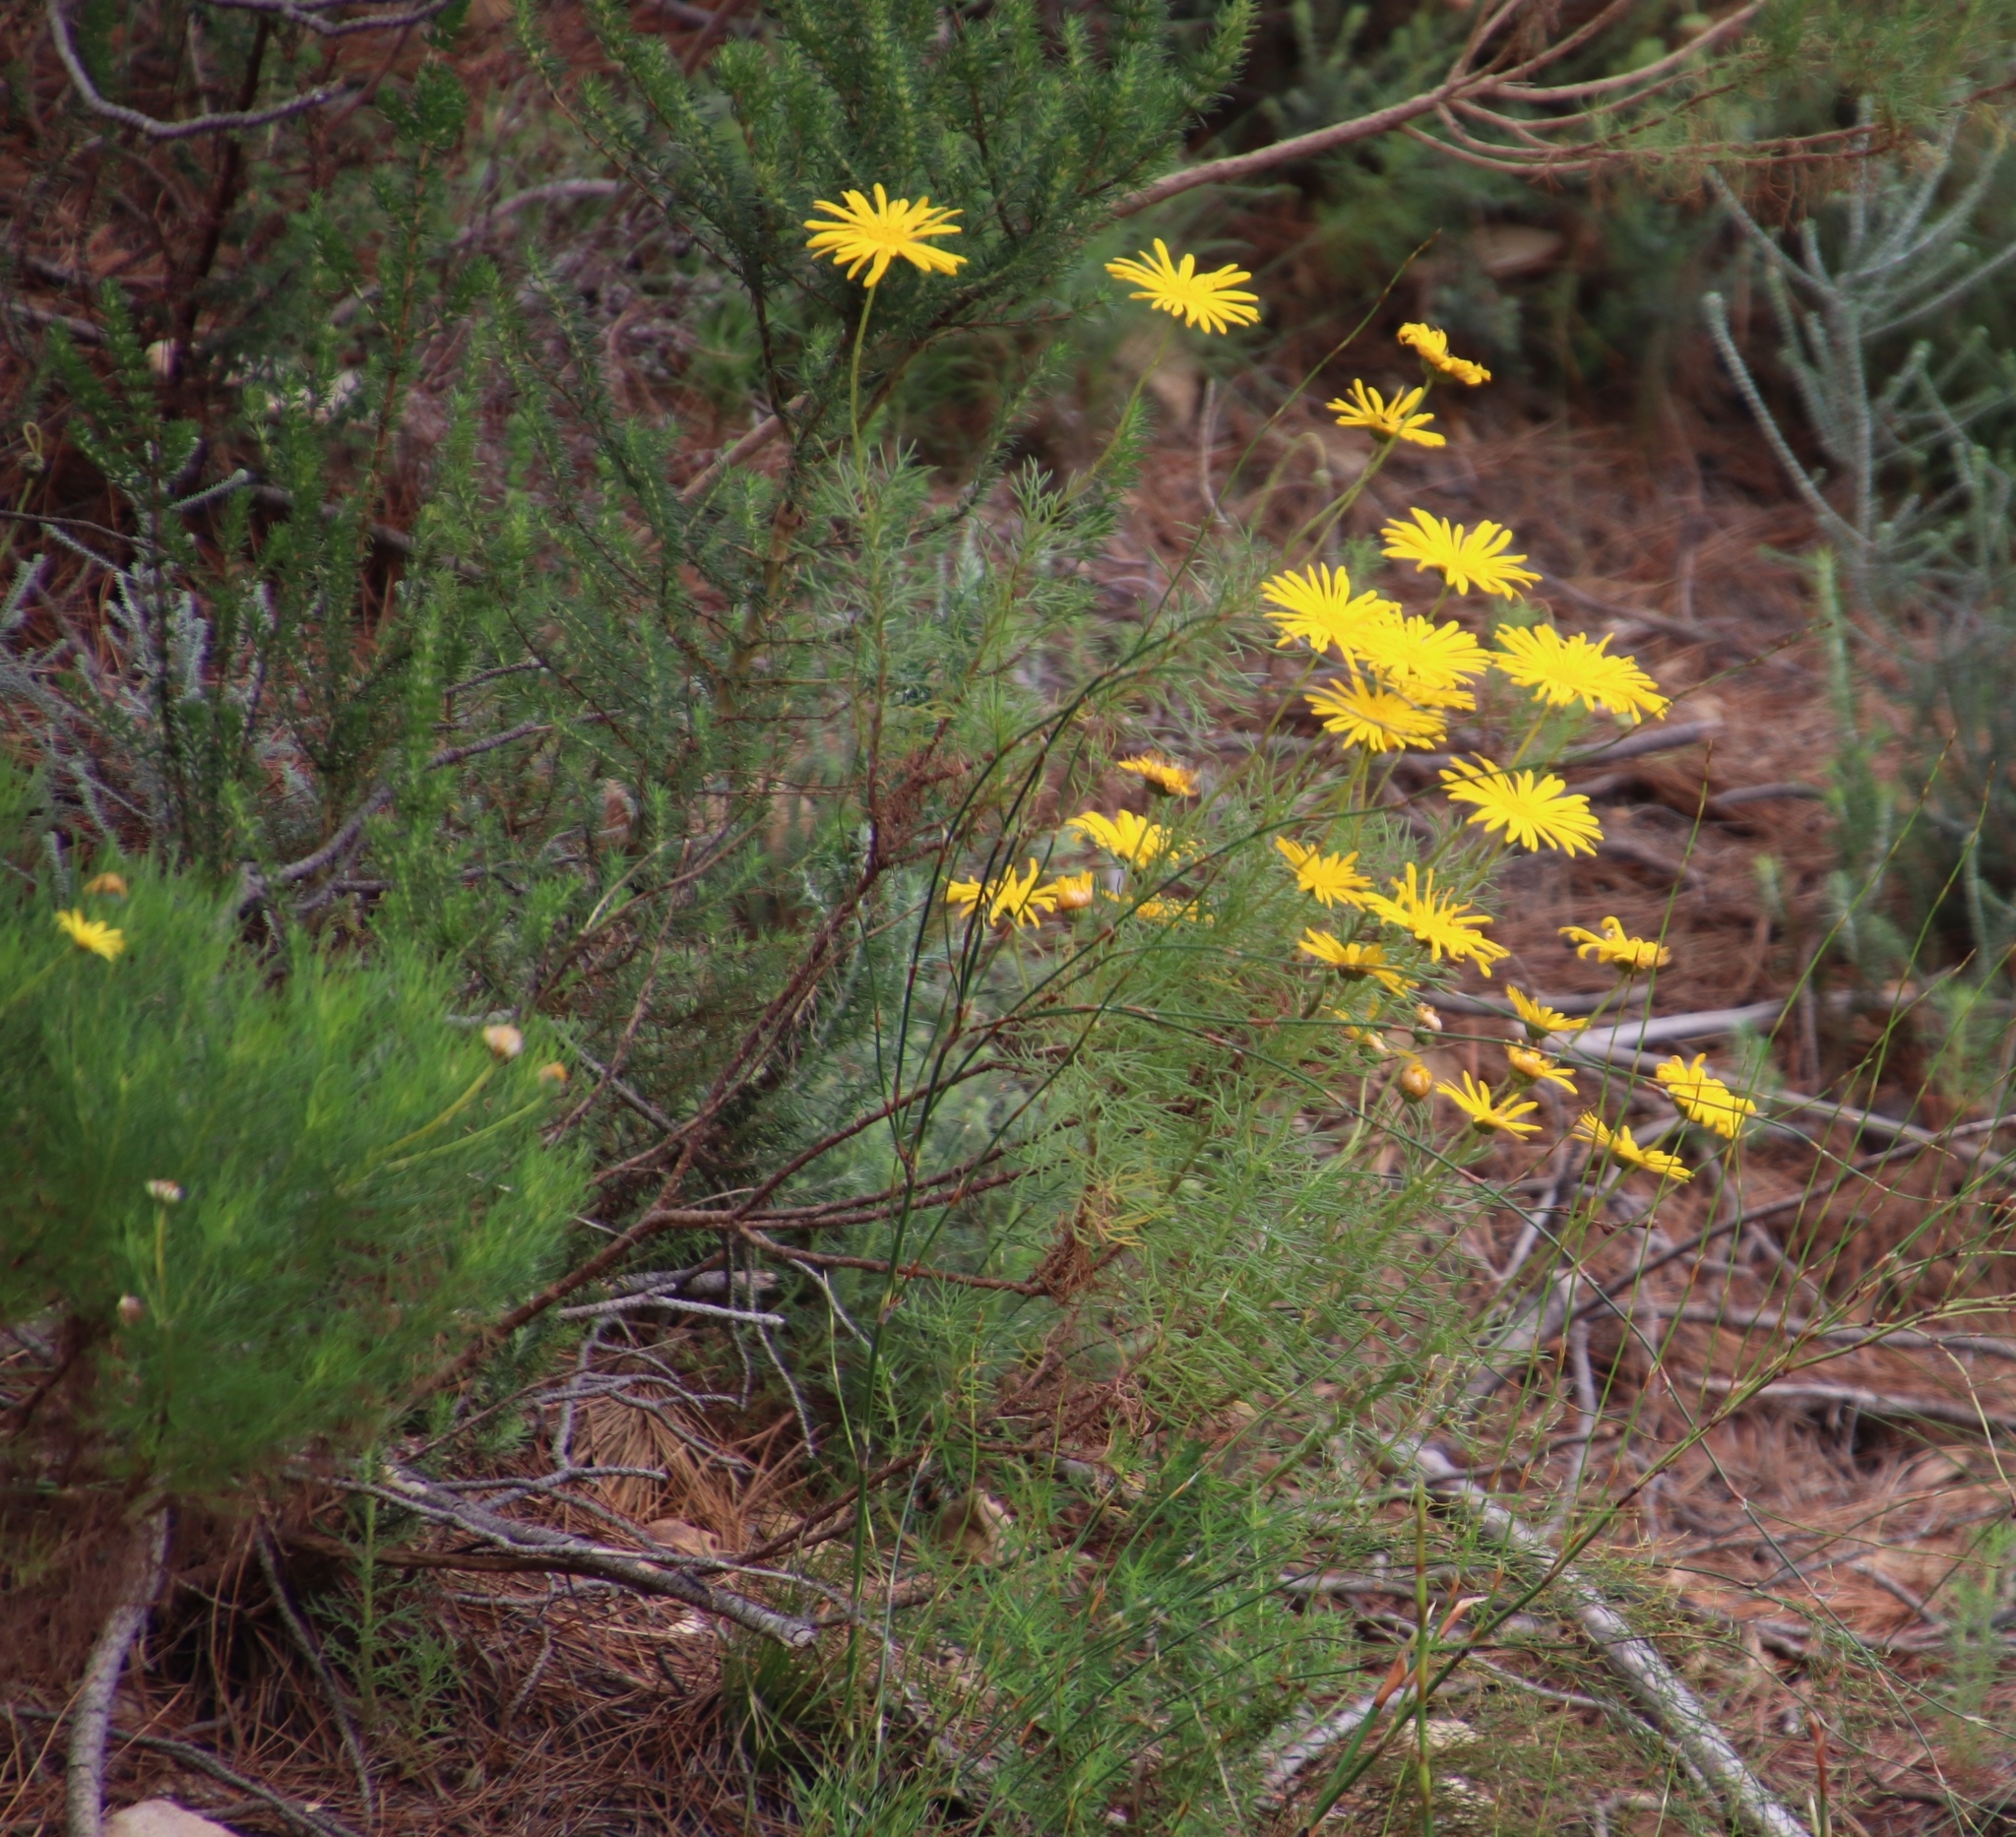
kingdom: Plantae
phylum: Tracheophyta
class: Magnoliopsida
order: Asterales
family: Asteraceae
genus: Euryops
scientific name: Euryops abrotanifolius
